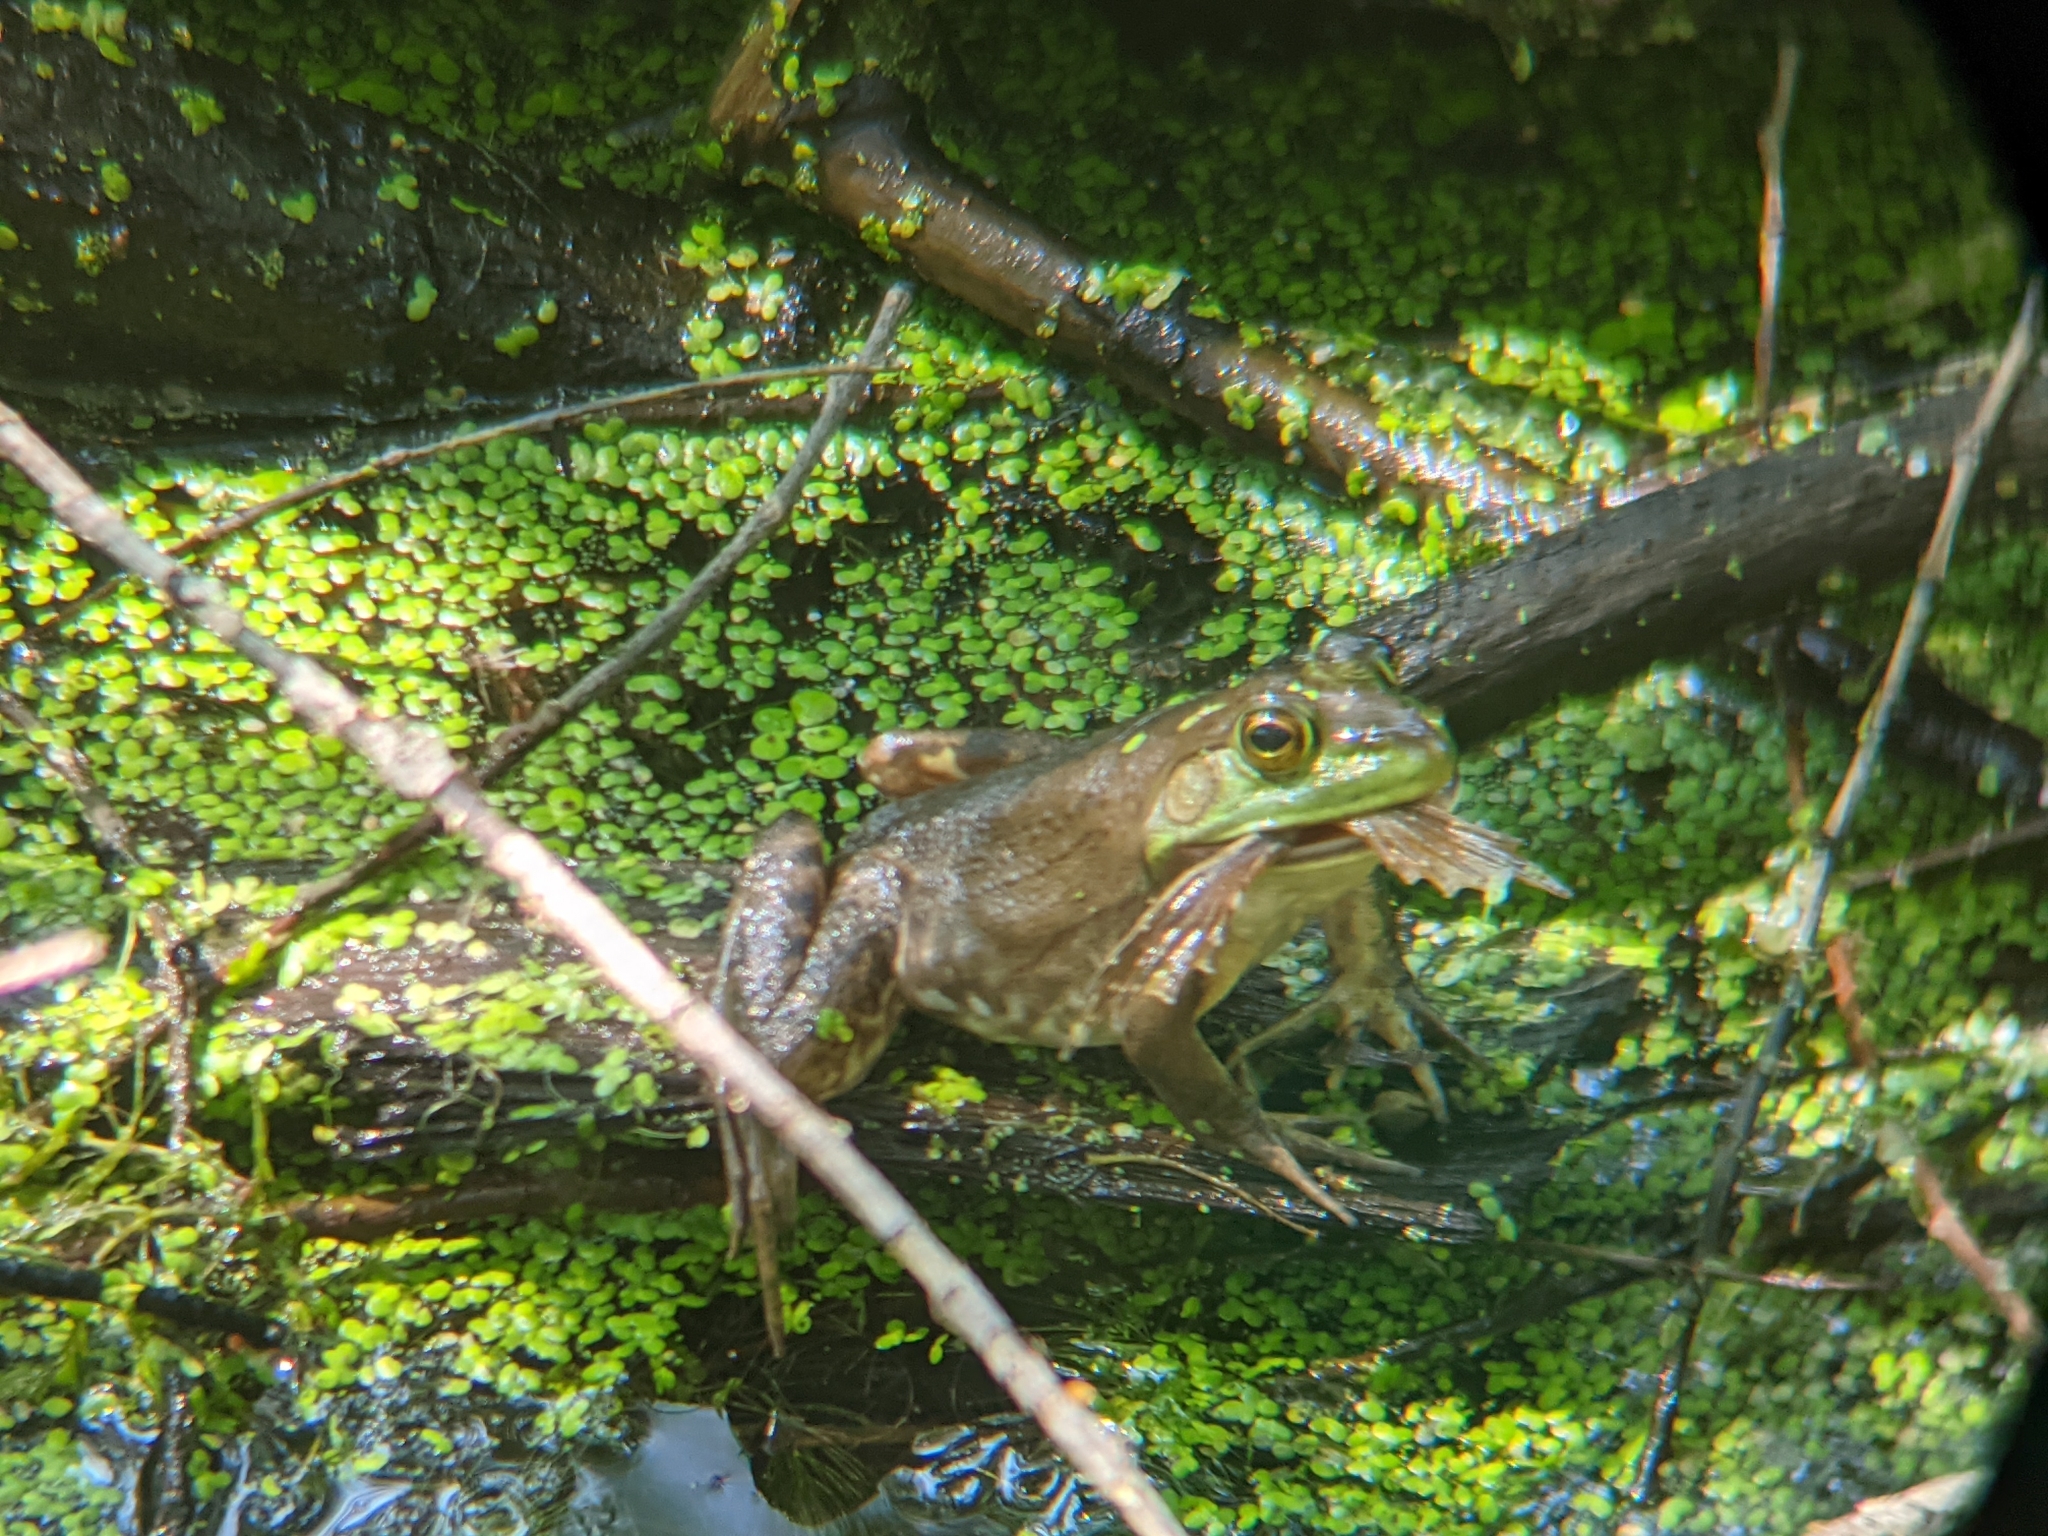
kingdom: Animalia
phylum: Chordata
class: Amphibia
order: Anura
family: Ranidae
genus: Lithobates
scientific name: Lithobates catesbeianus
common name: American bullfrog
